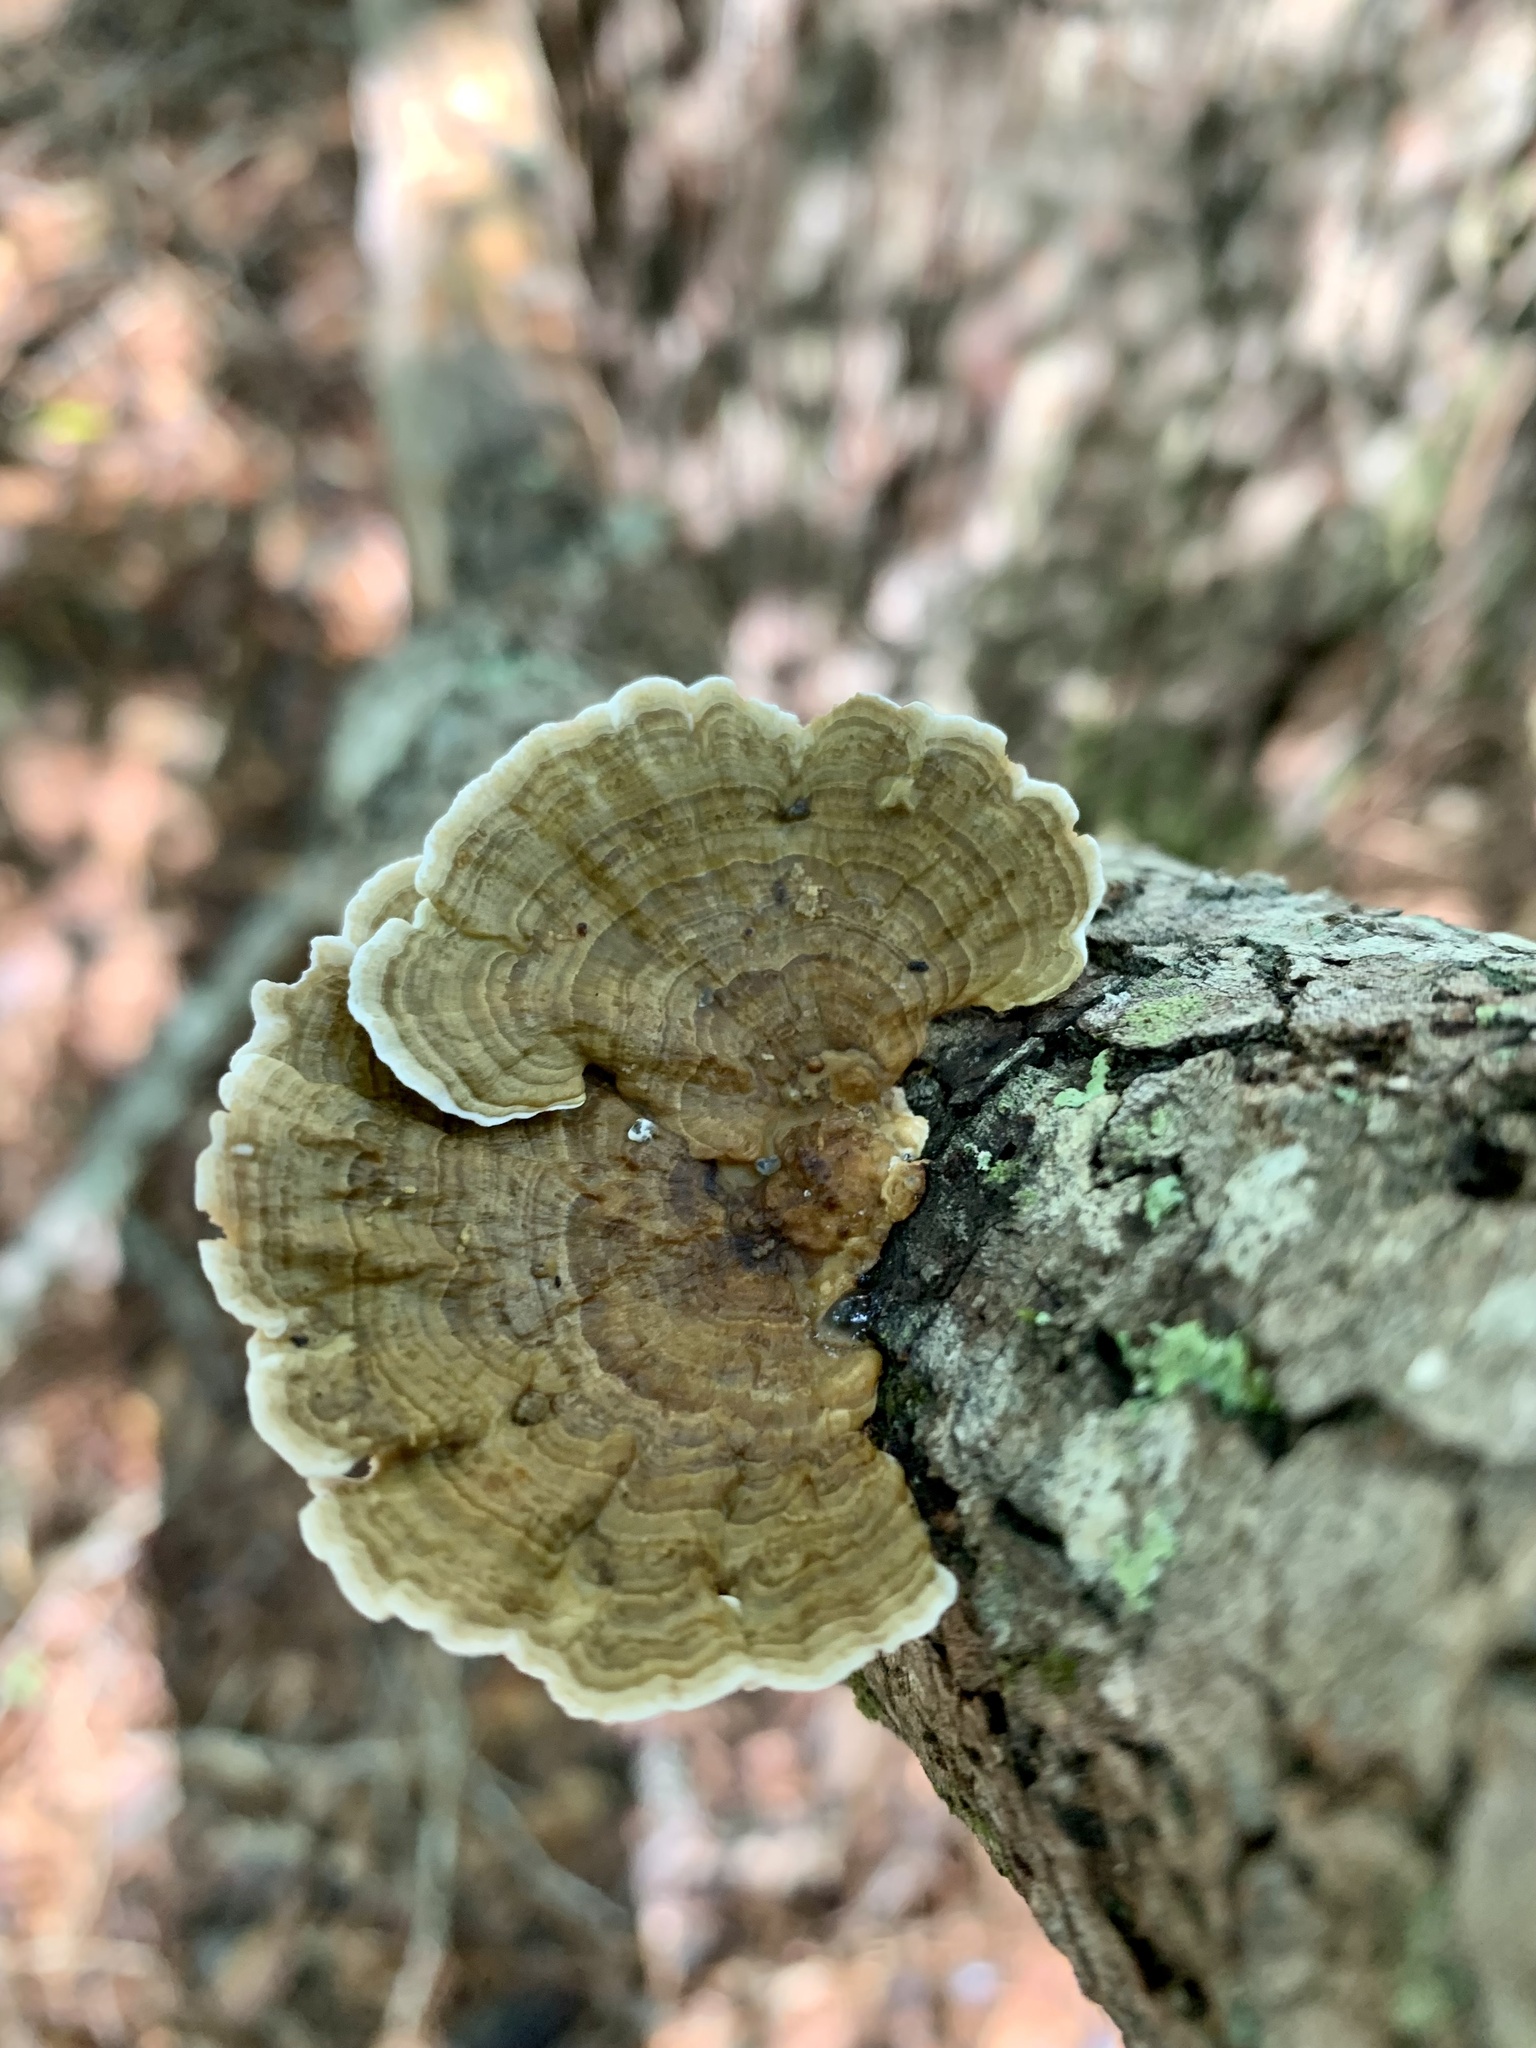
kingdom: Fungi
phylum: Basidiomycota
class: Agaricomycetes
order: Polyporales
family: Polyporaceae
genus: Lenzites
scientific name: Lenzites betulinus
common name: Birch mazegill
